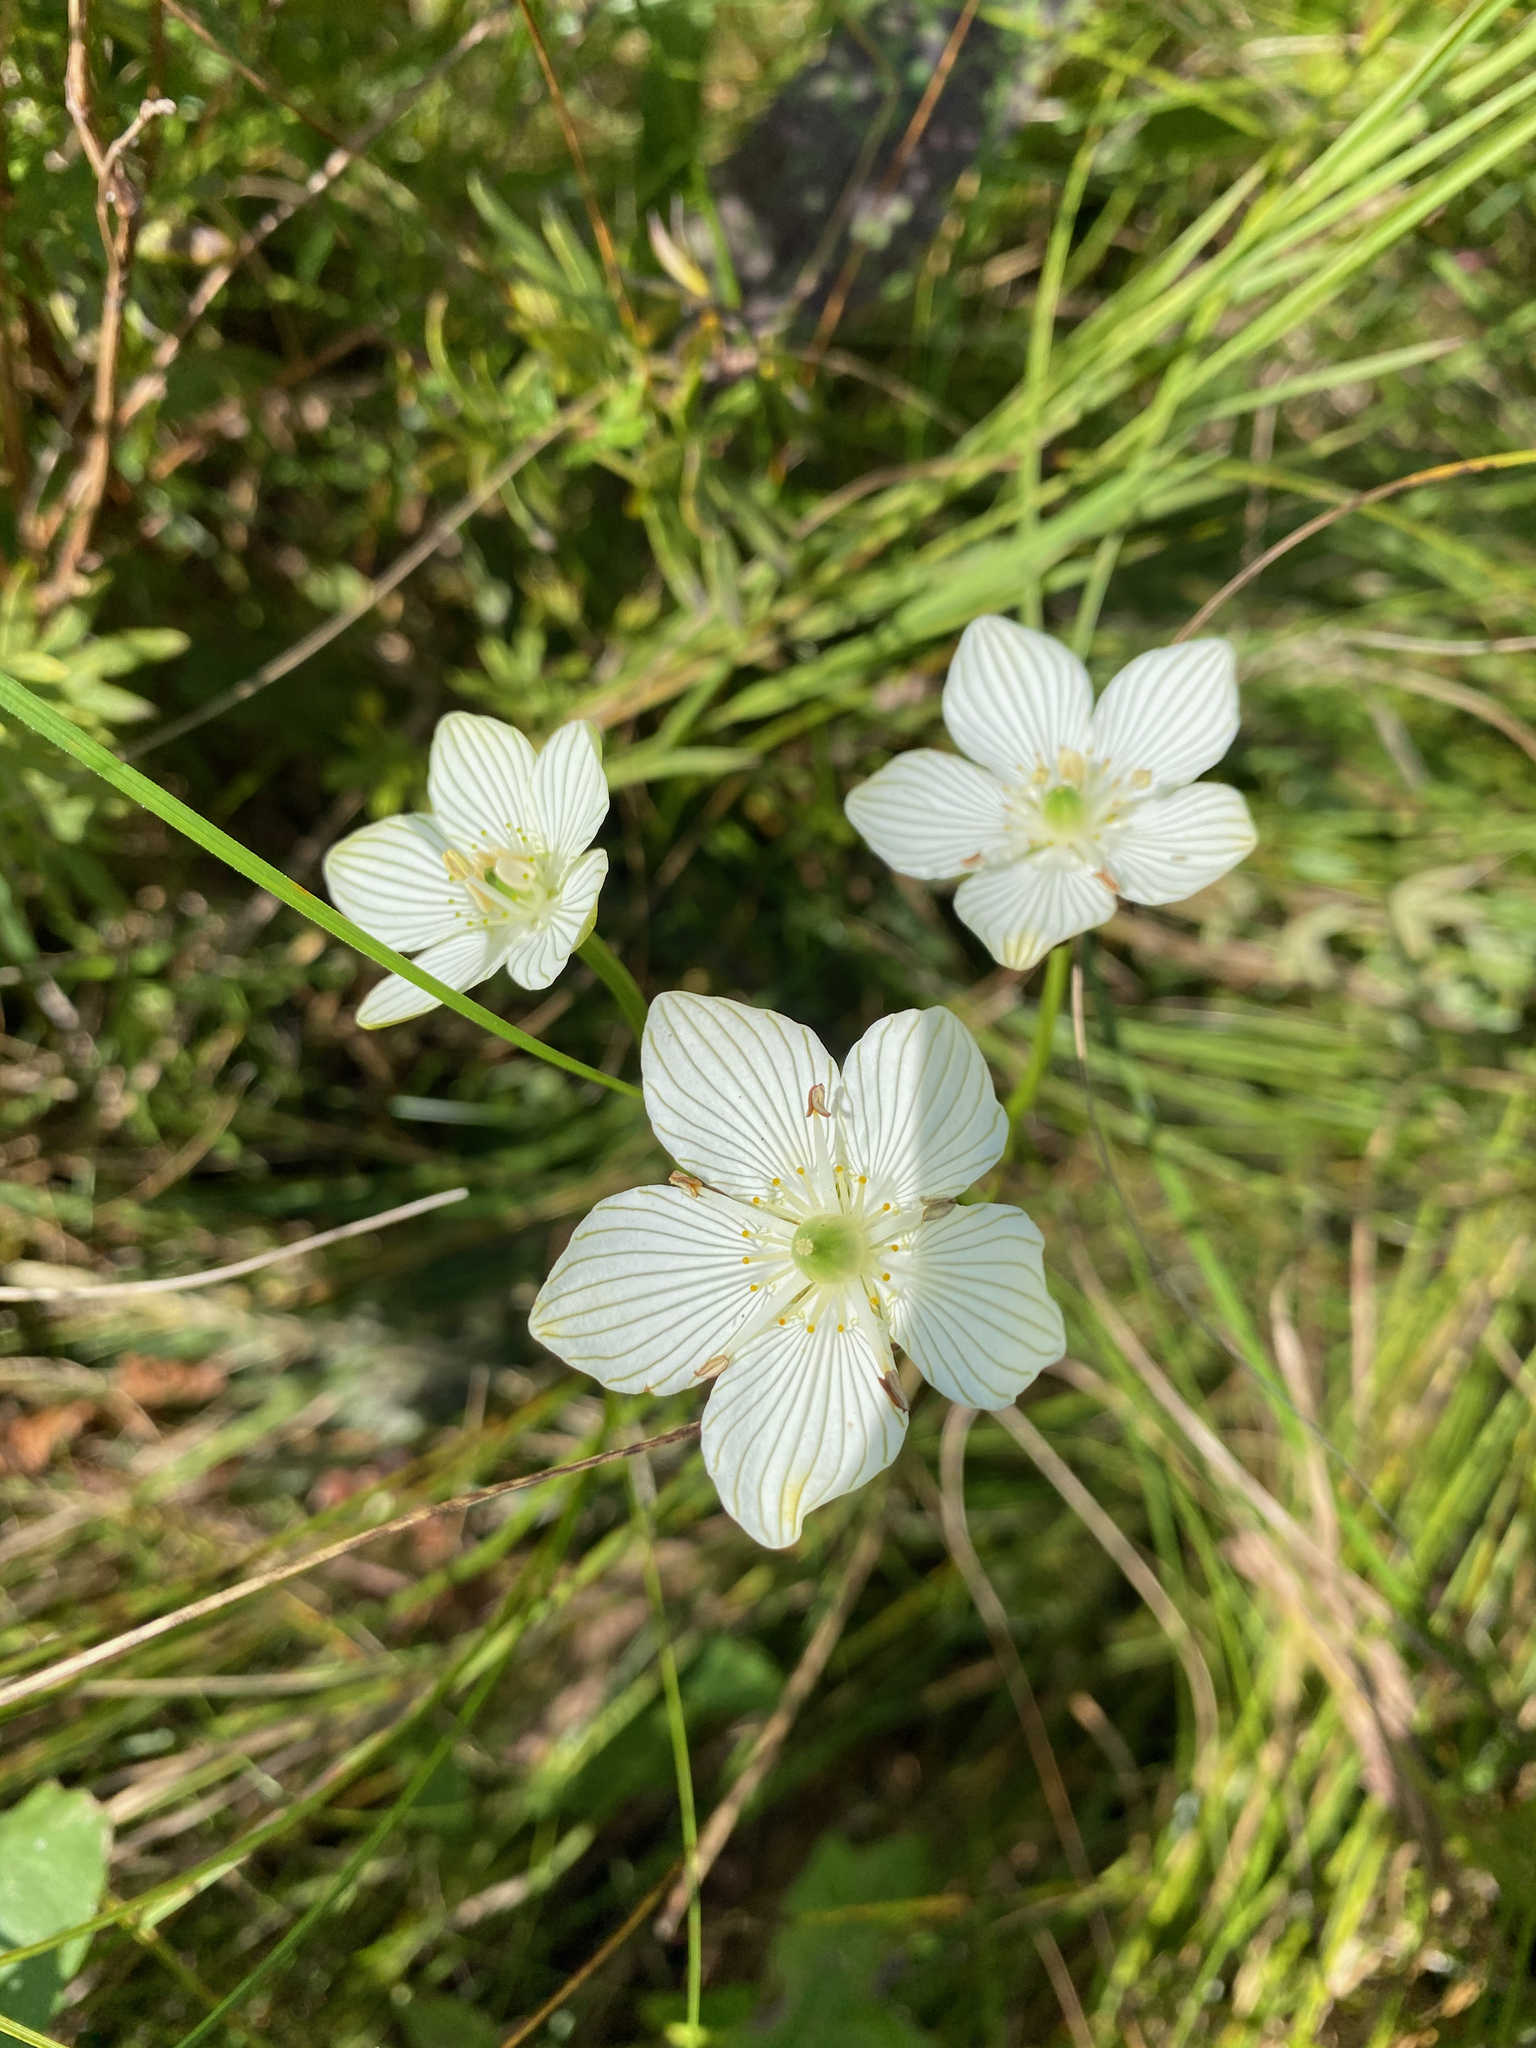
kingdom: Plantae
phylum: Tracheophyta
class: Magnoliopsida
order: Celastrales
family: Parnassiaceae
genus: Parnassia
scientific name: Parnassia glauca
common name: American grass-of-parnassus
